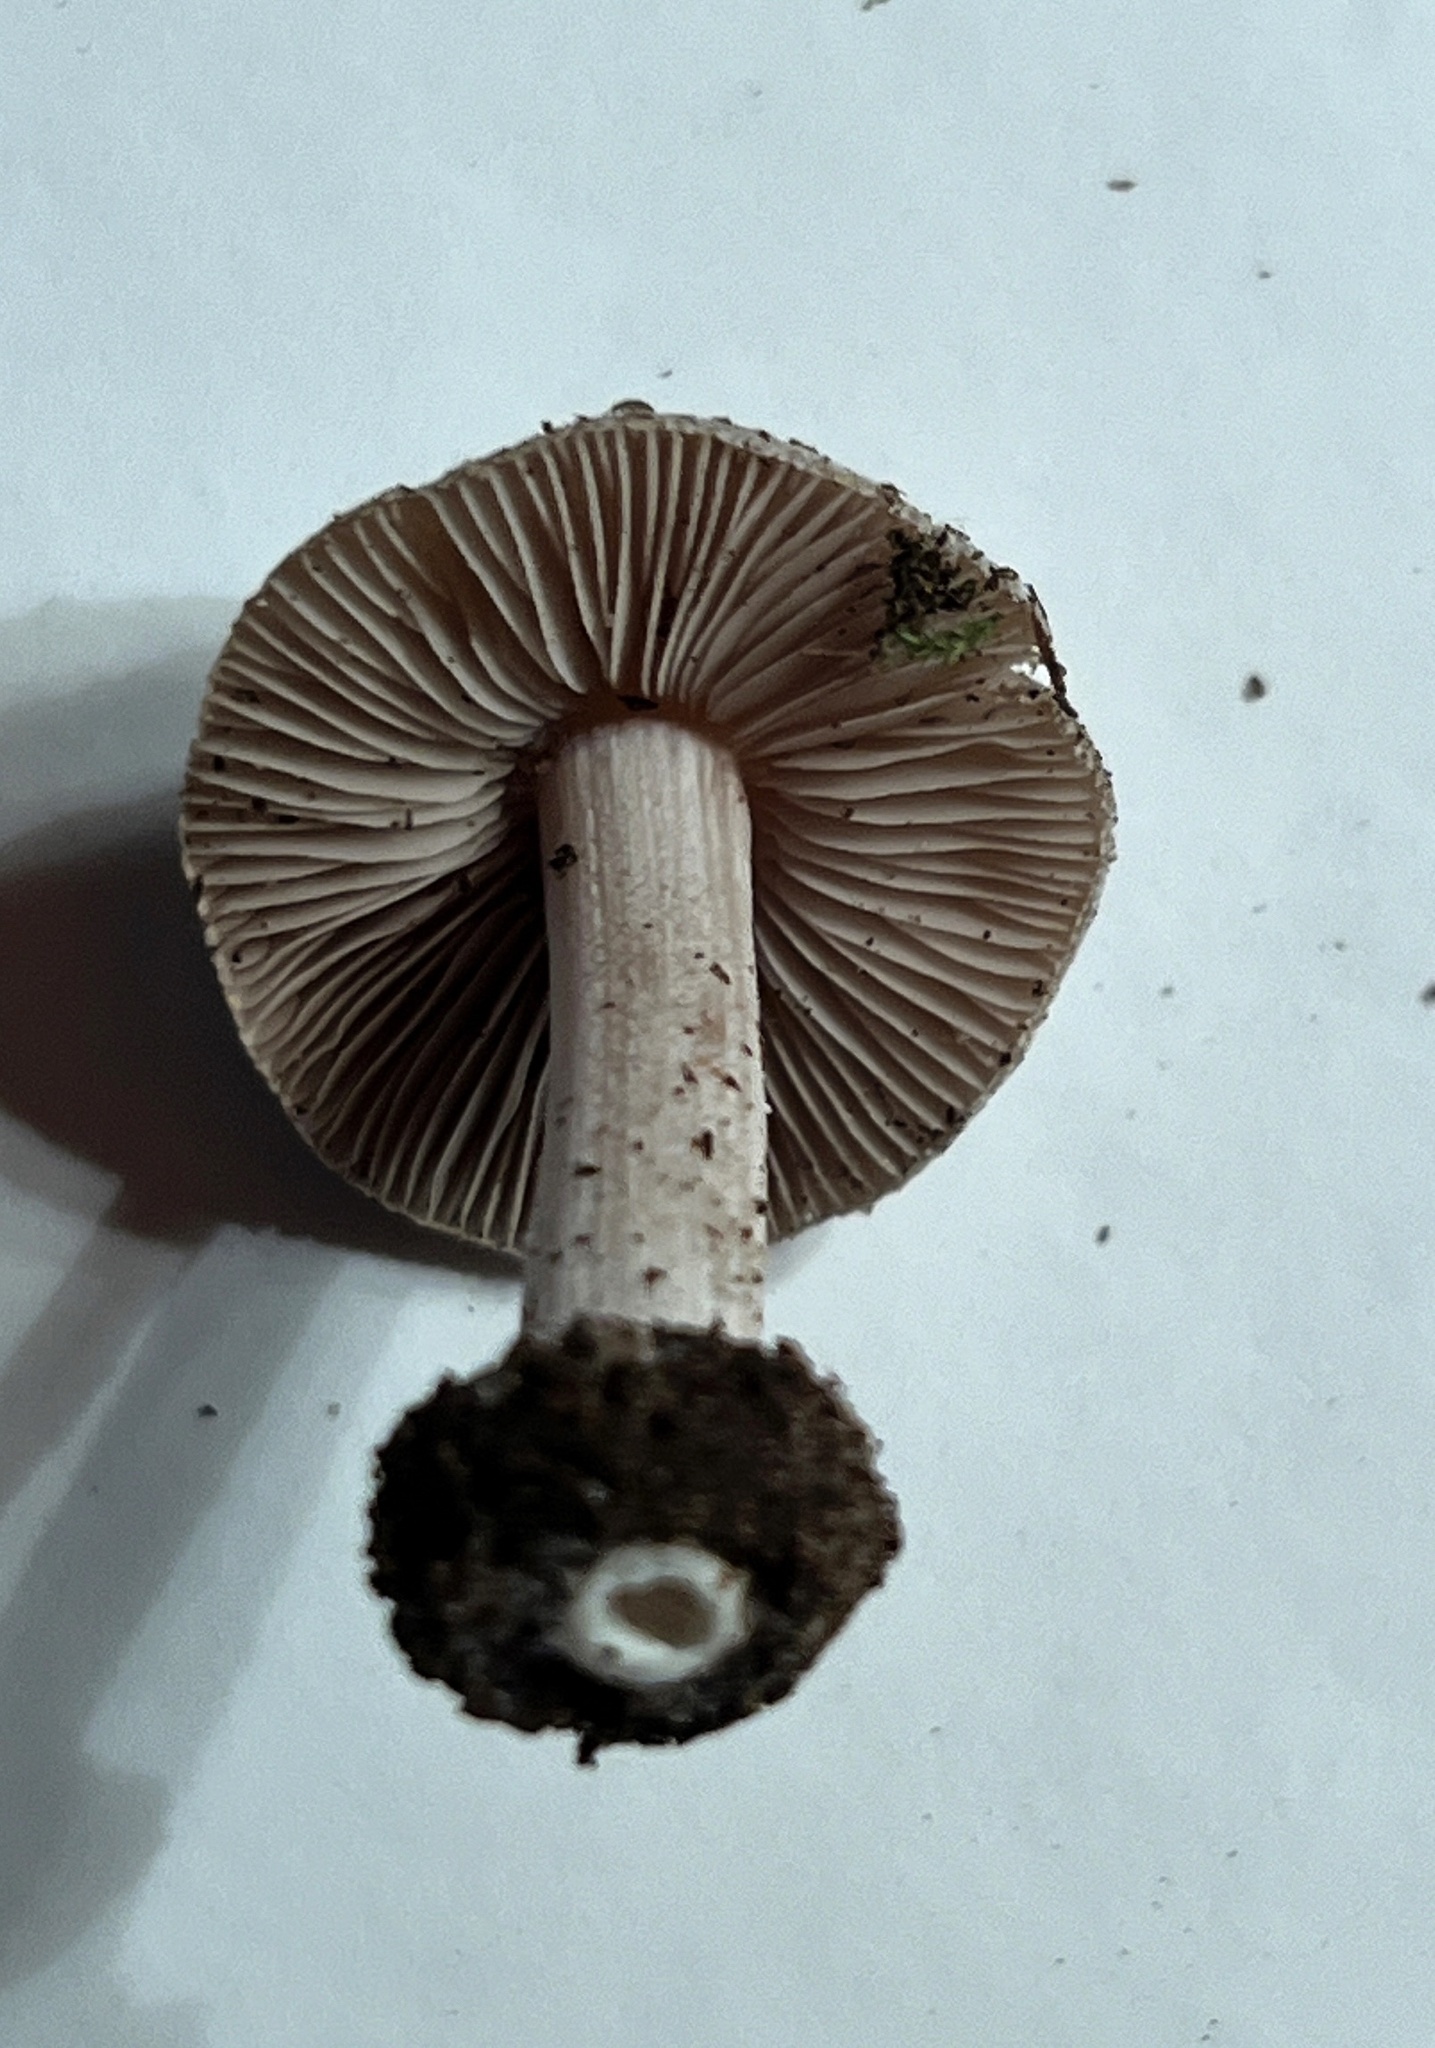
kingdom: Fungi
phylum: Basidiomycota
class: Agaricomycetes
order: Agaricales
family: Inocybaceae
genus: Inocybe
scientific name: Inocybe acriolens
